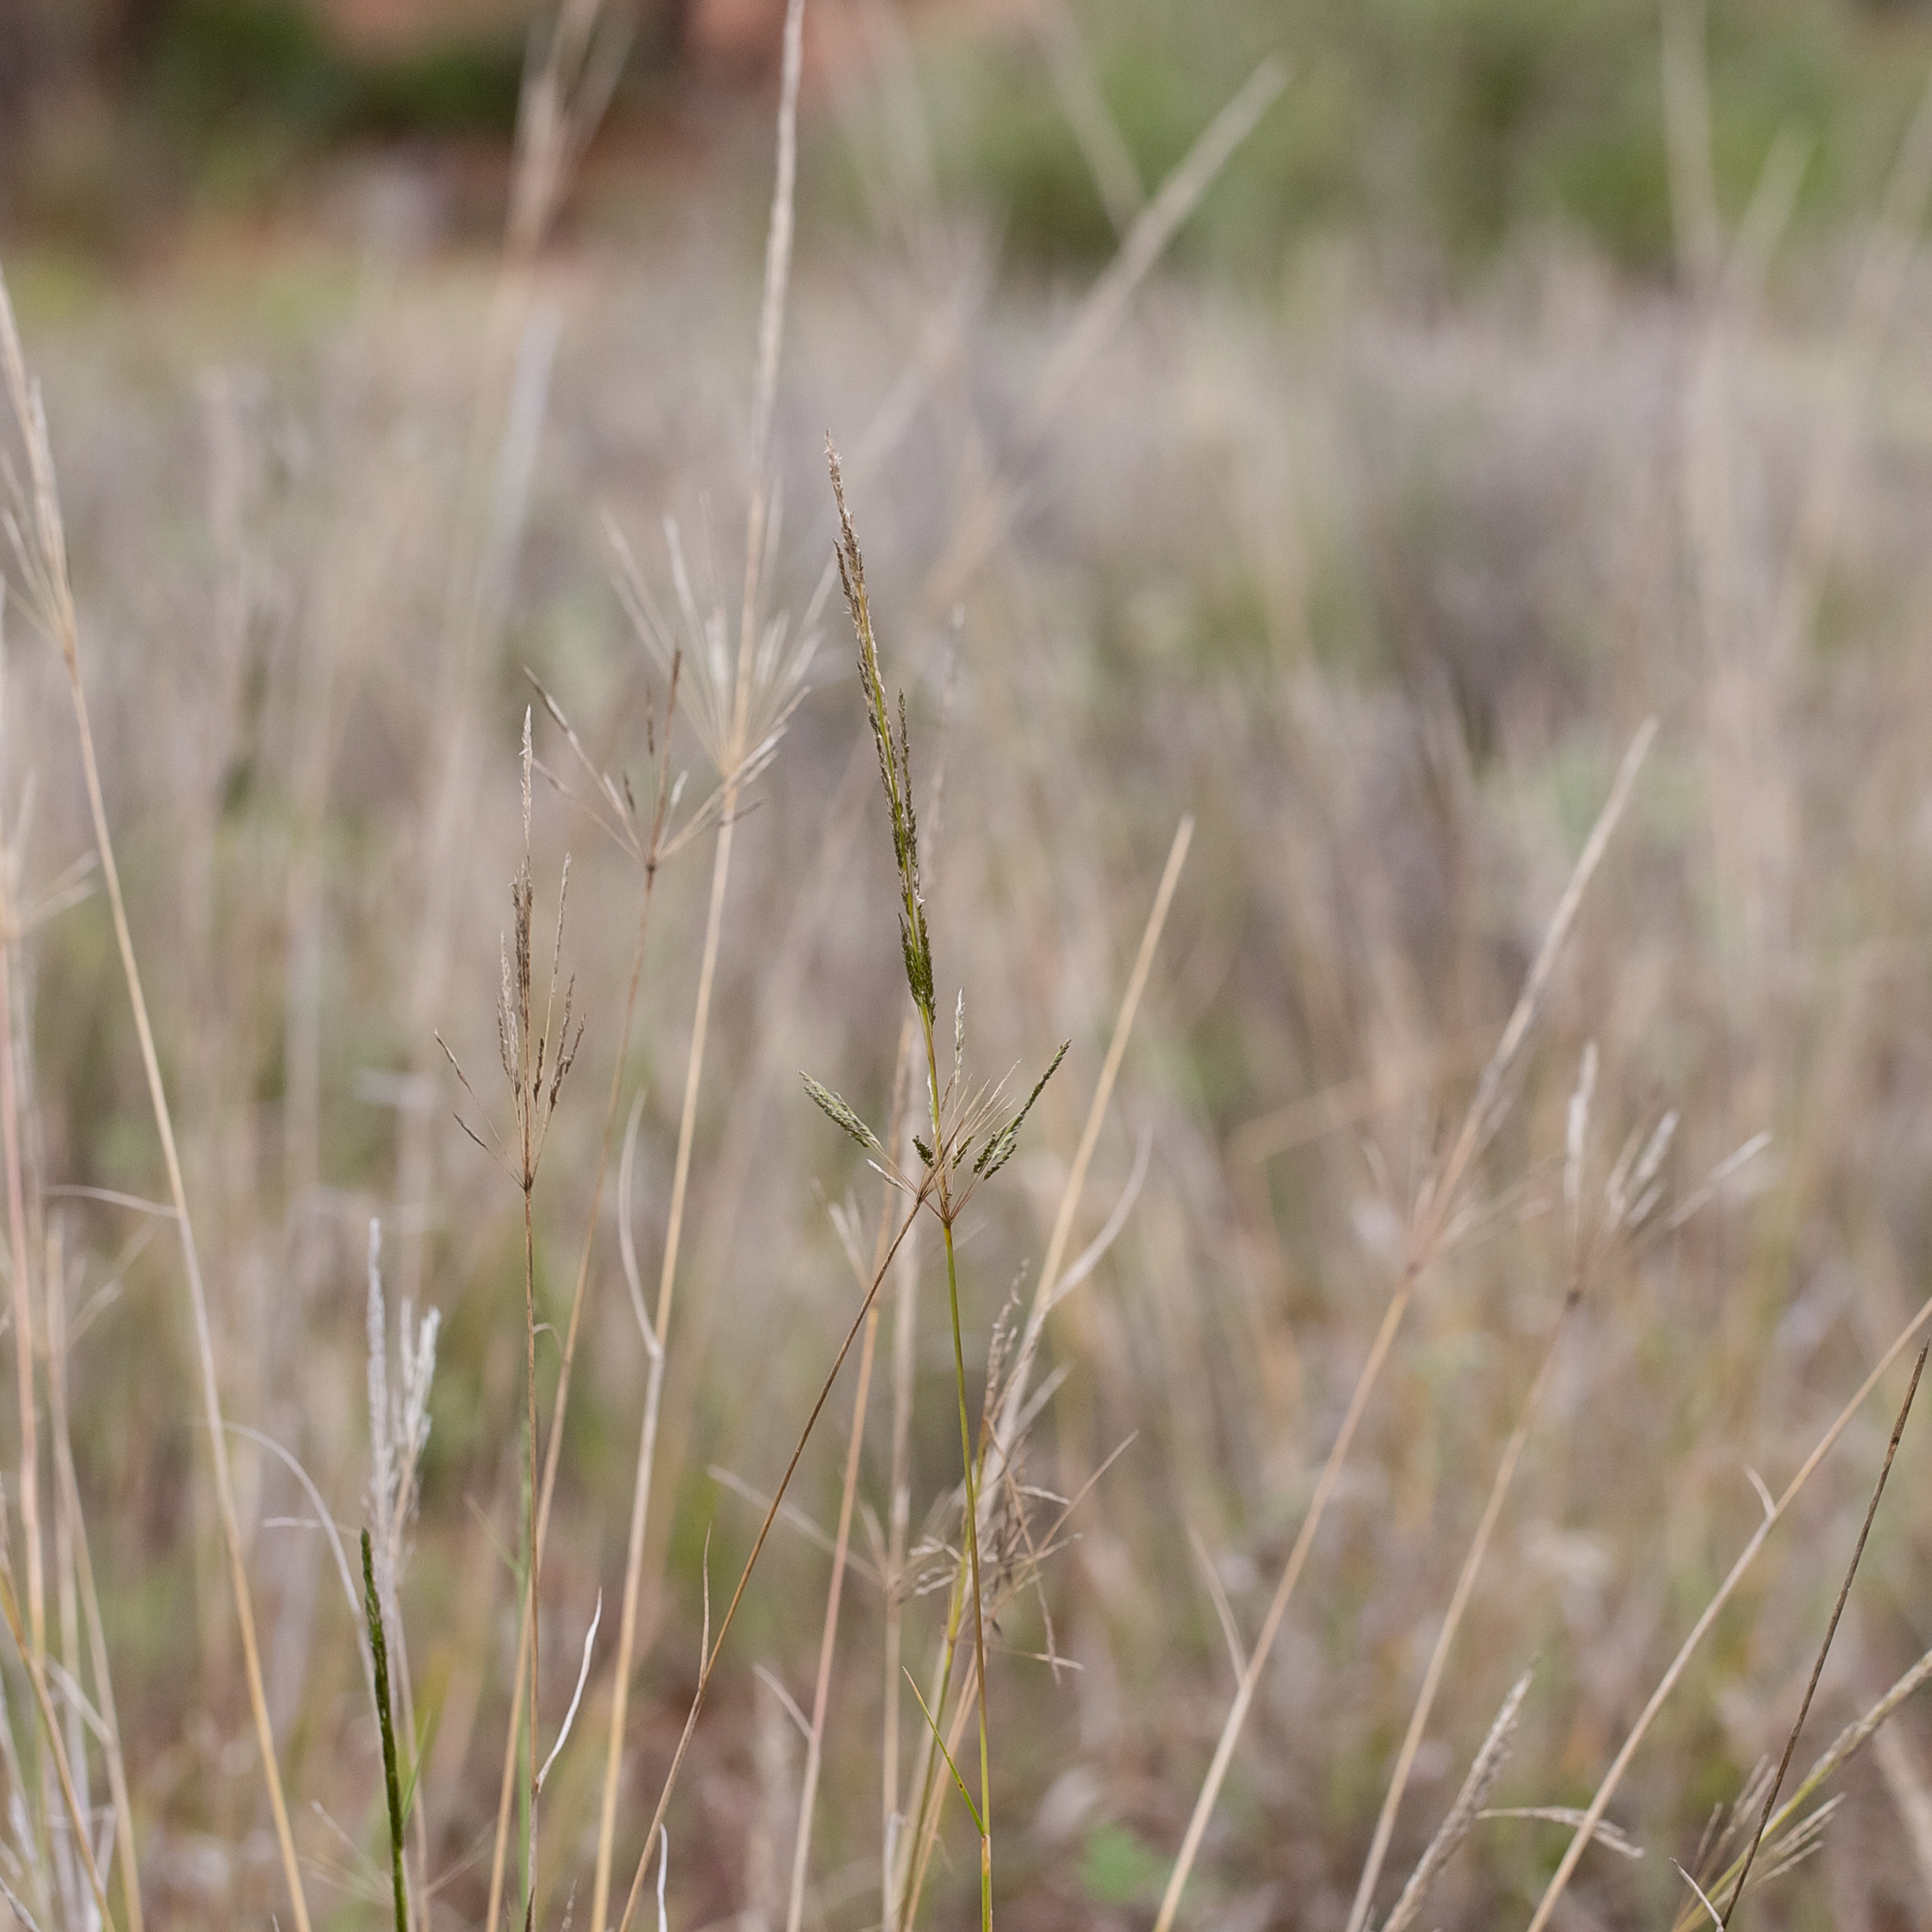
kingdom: Plantae
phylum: Tracheophyta
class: Liliopsida
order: Poales
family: Poaceae
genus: Sporobolus
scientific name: Sporobolus actinocladus
